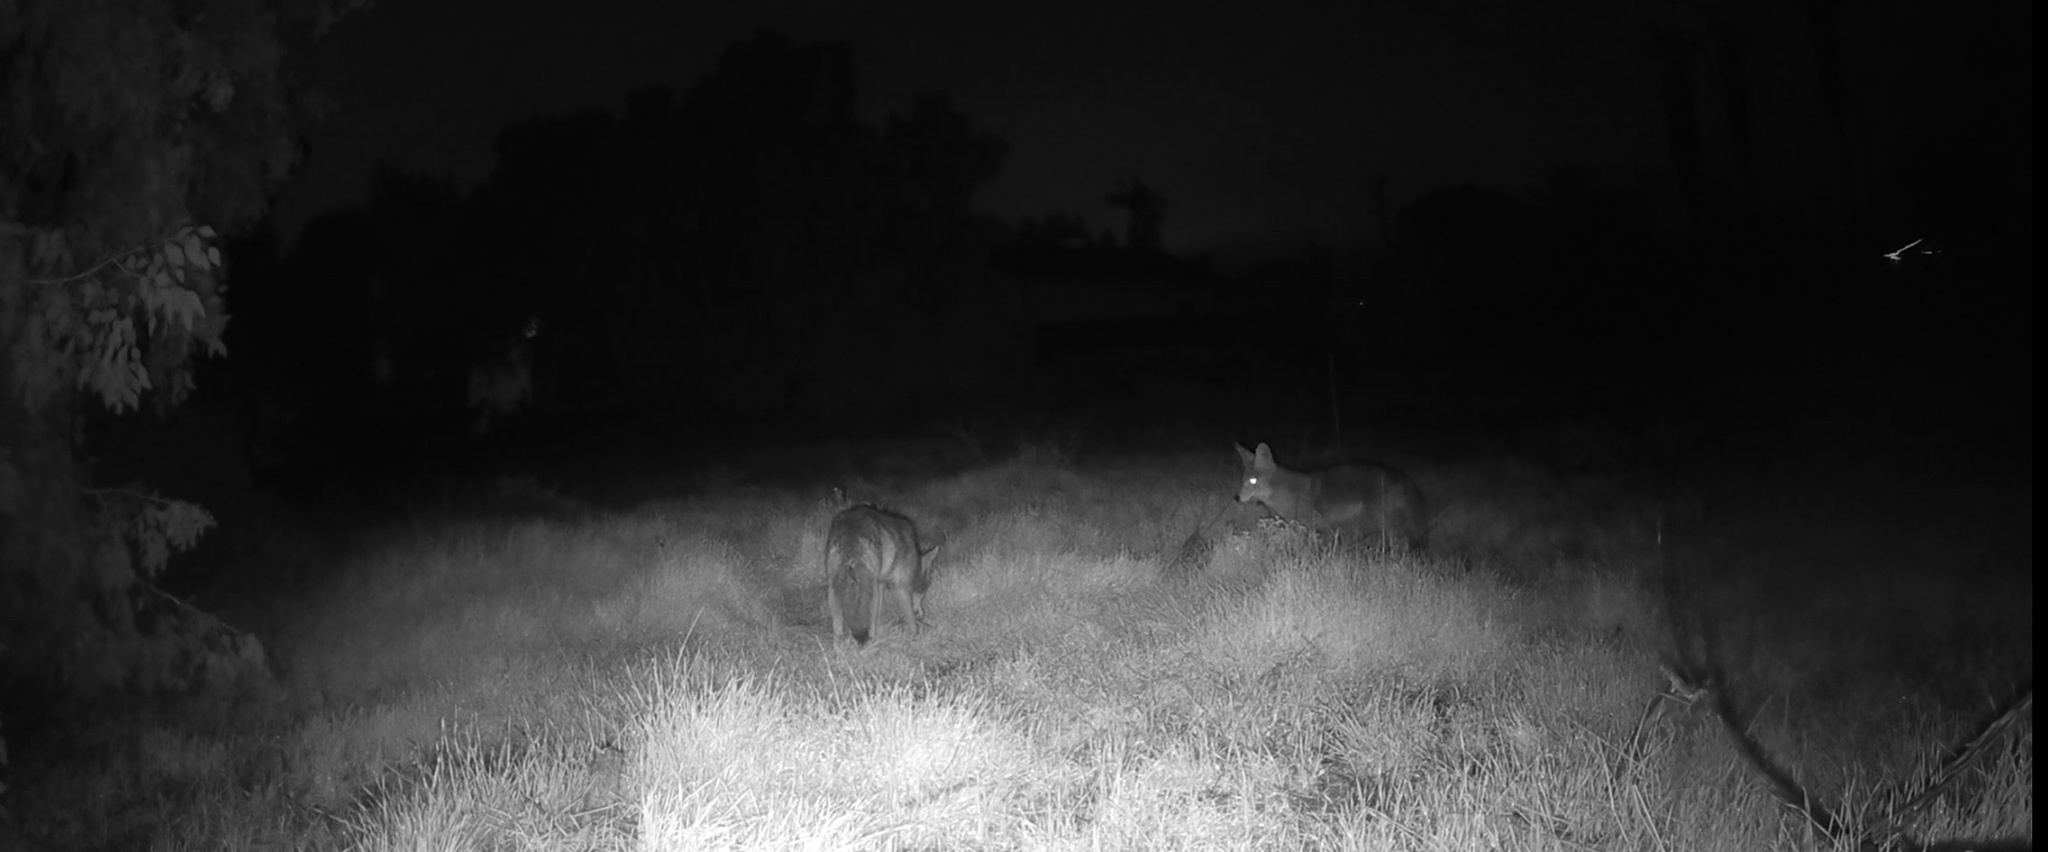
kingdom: Animalia
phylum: Chordata
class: Mammalia
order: Carnivora
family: Canidae
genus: Canis
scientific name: Canis latrans
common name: Coyote
